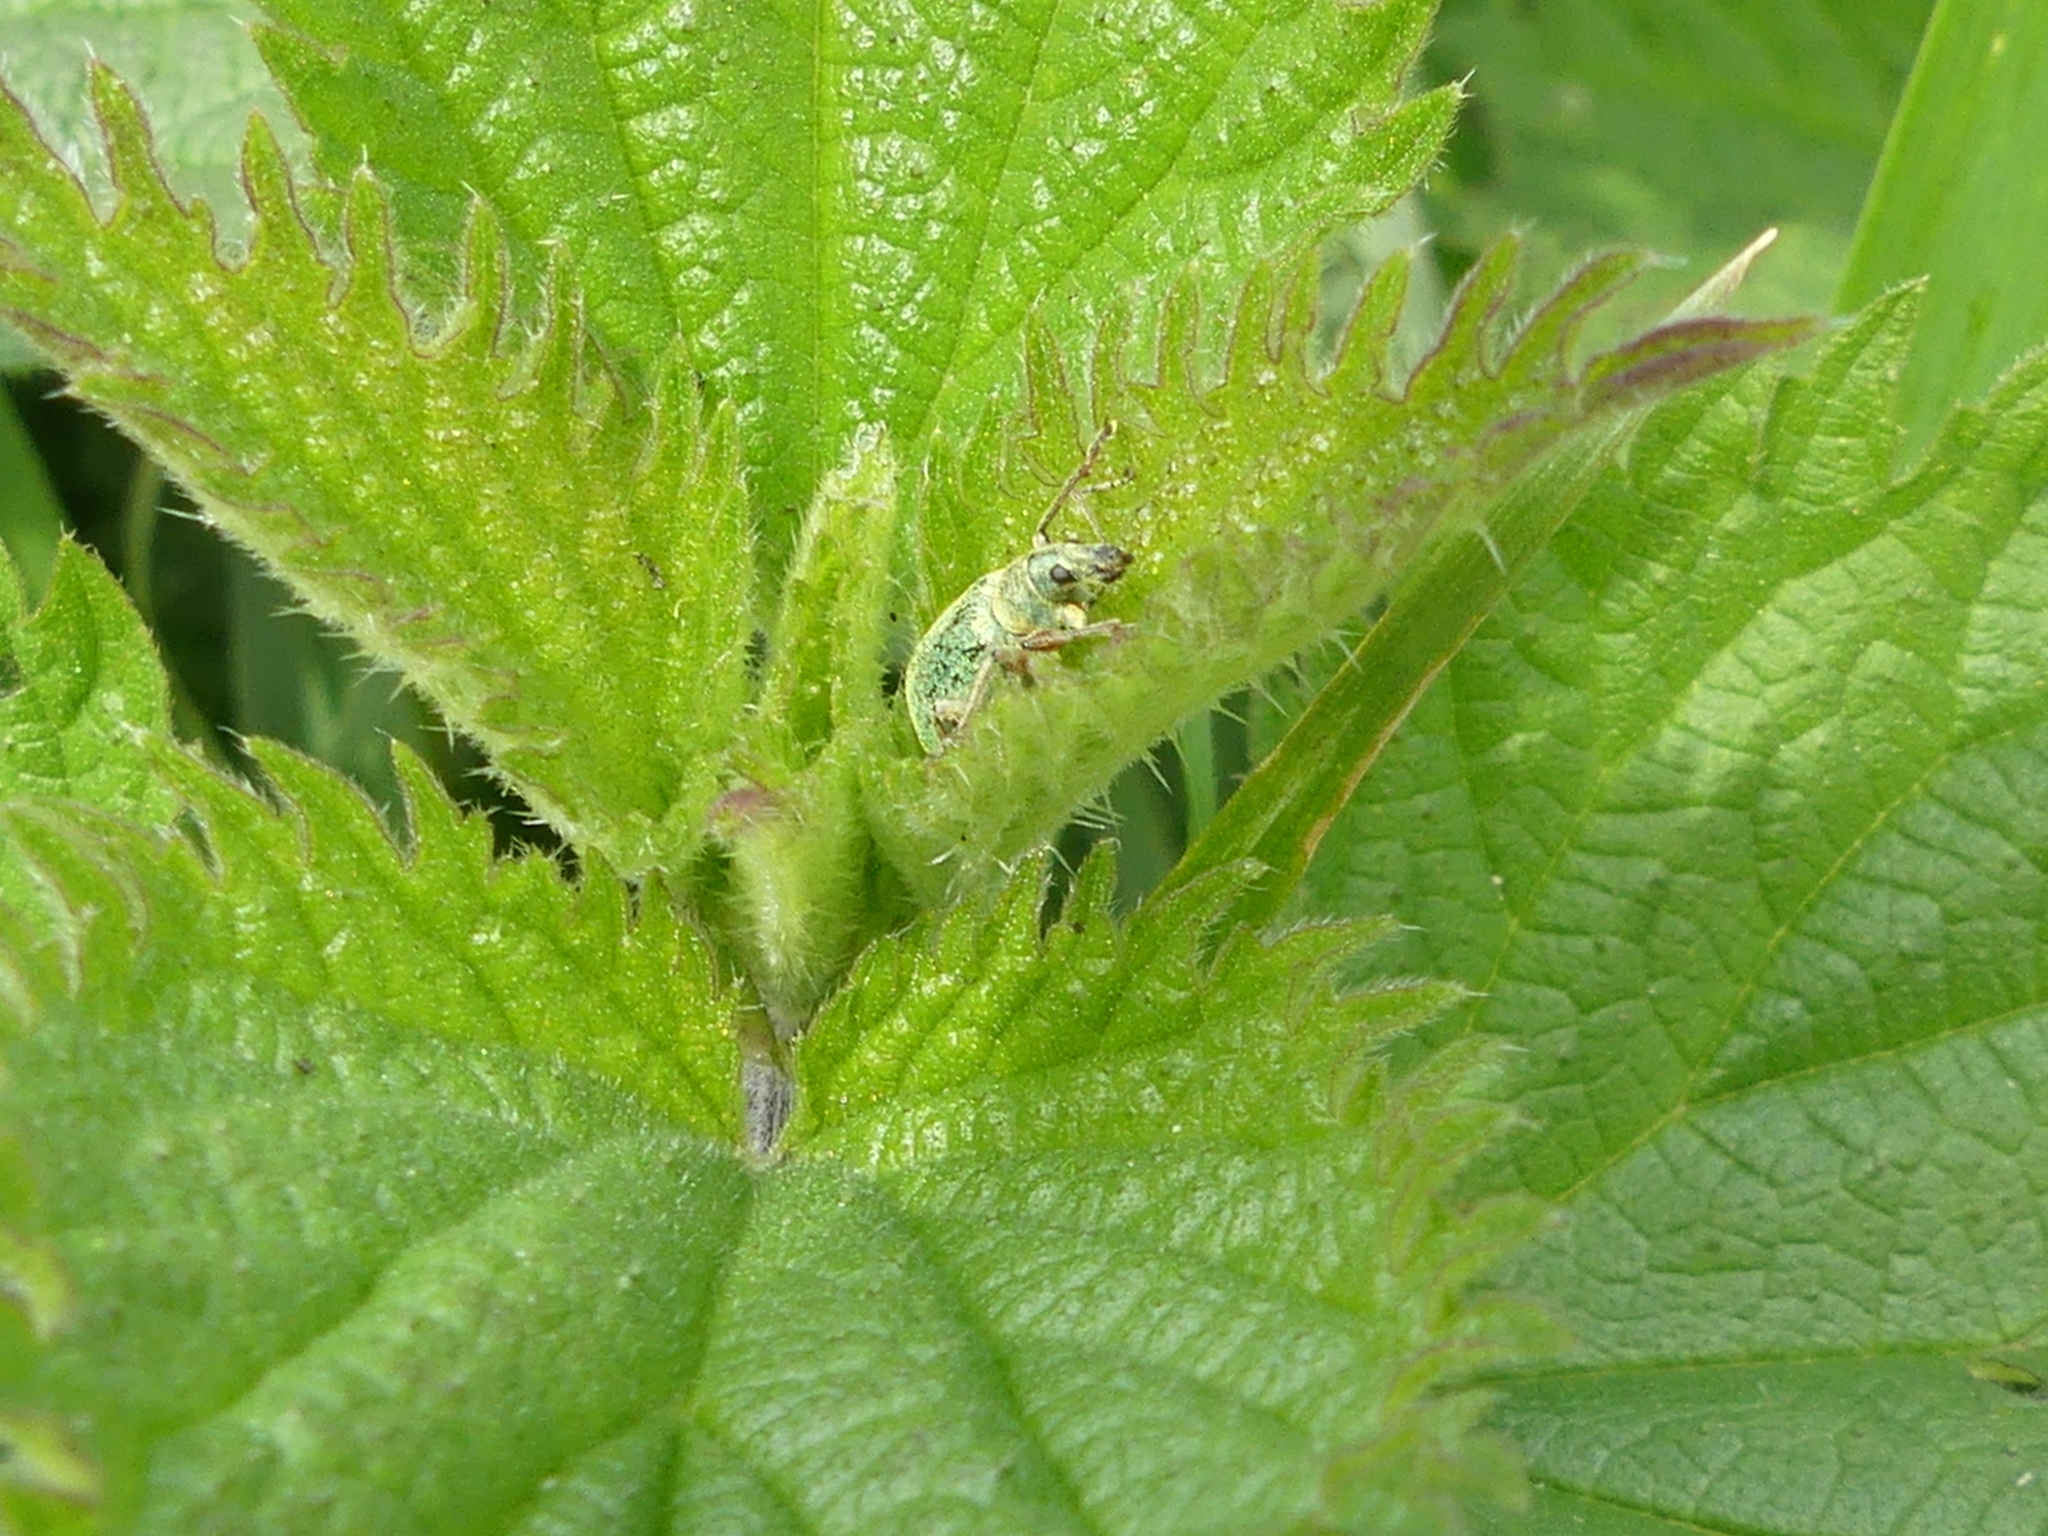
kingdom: Animalia
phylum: Arthropoda
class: Insecta
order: Coleoptera
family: Curculionidae
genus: Phyllobius
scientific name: Phyllobius pomaceus
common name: Green nettle weevil
